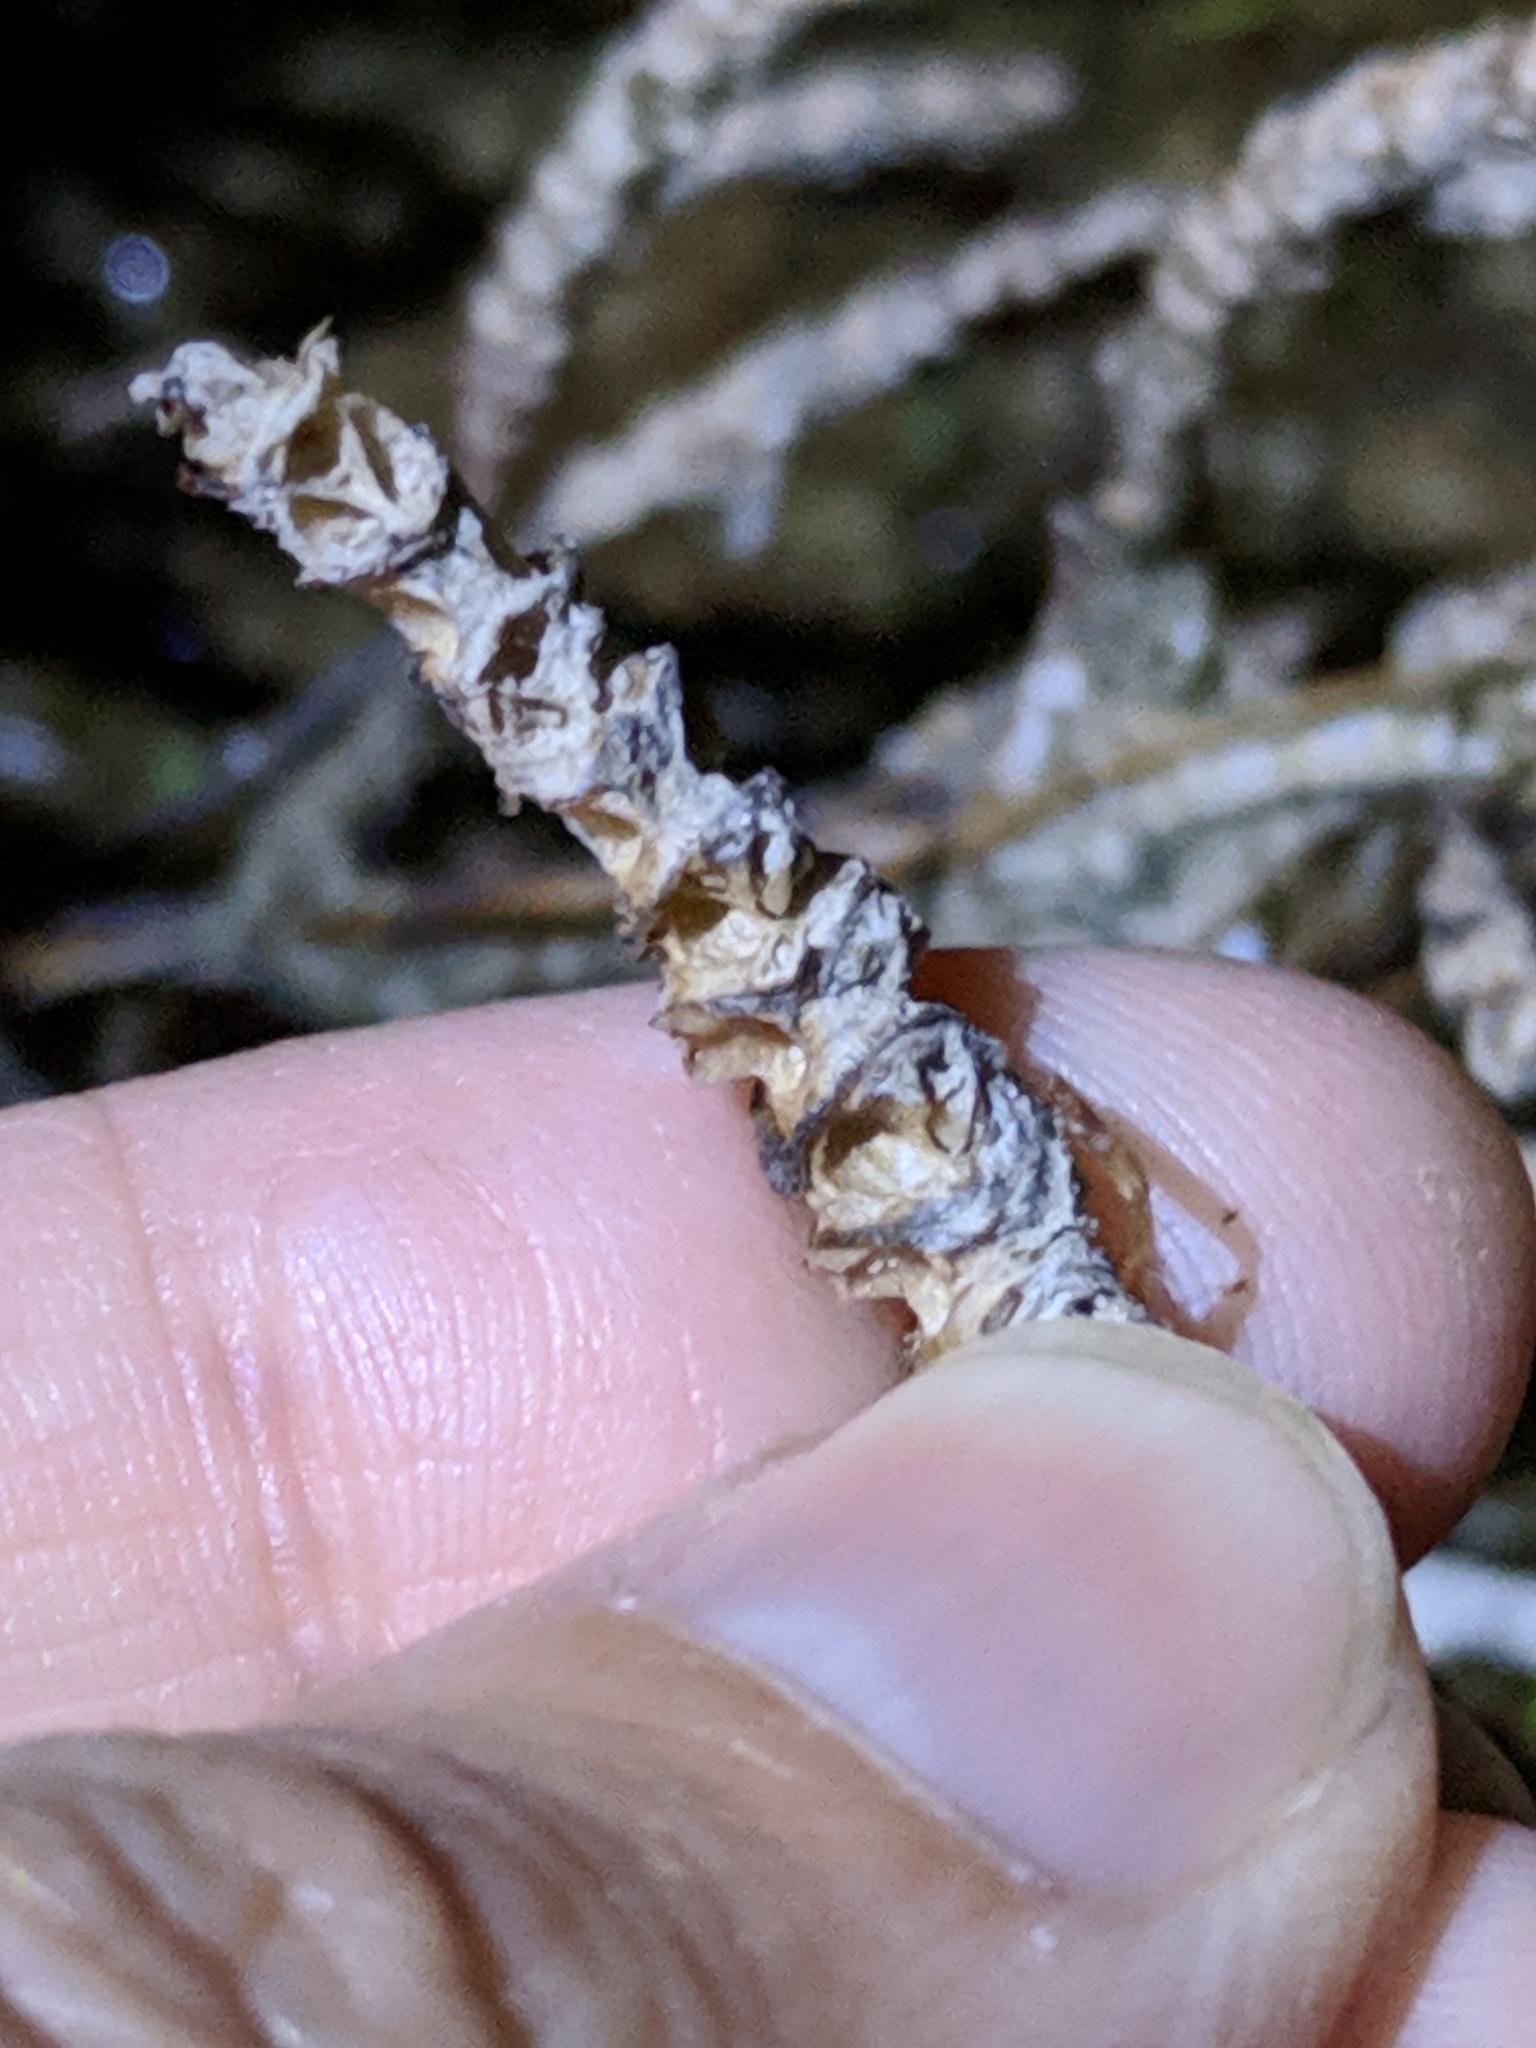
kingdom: Plantae
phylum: Tracheophyta
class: Magnoliopsida
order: Caryophyllales
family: Amaranthaceae
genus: Salicornia
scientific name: Salicornia bigelovii
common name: Dwarf glasswort
